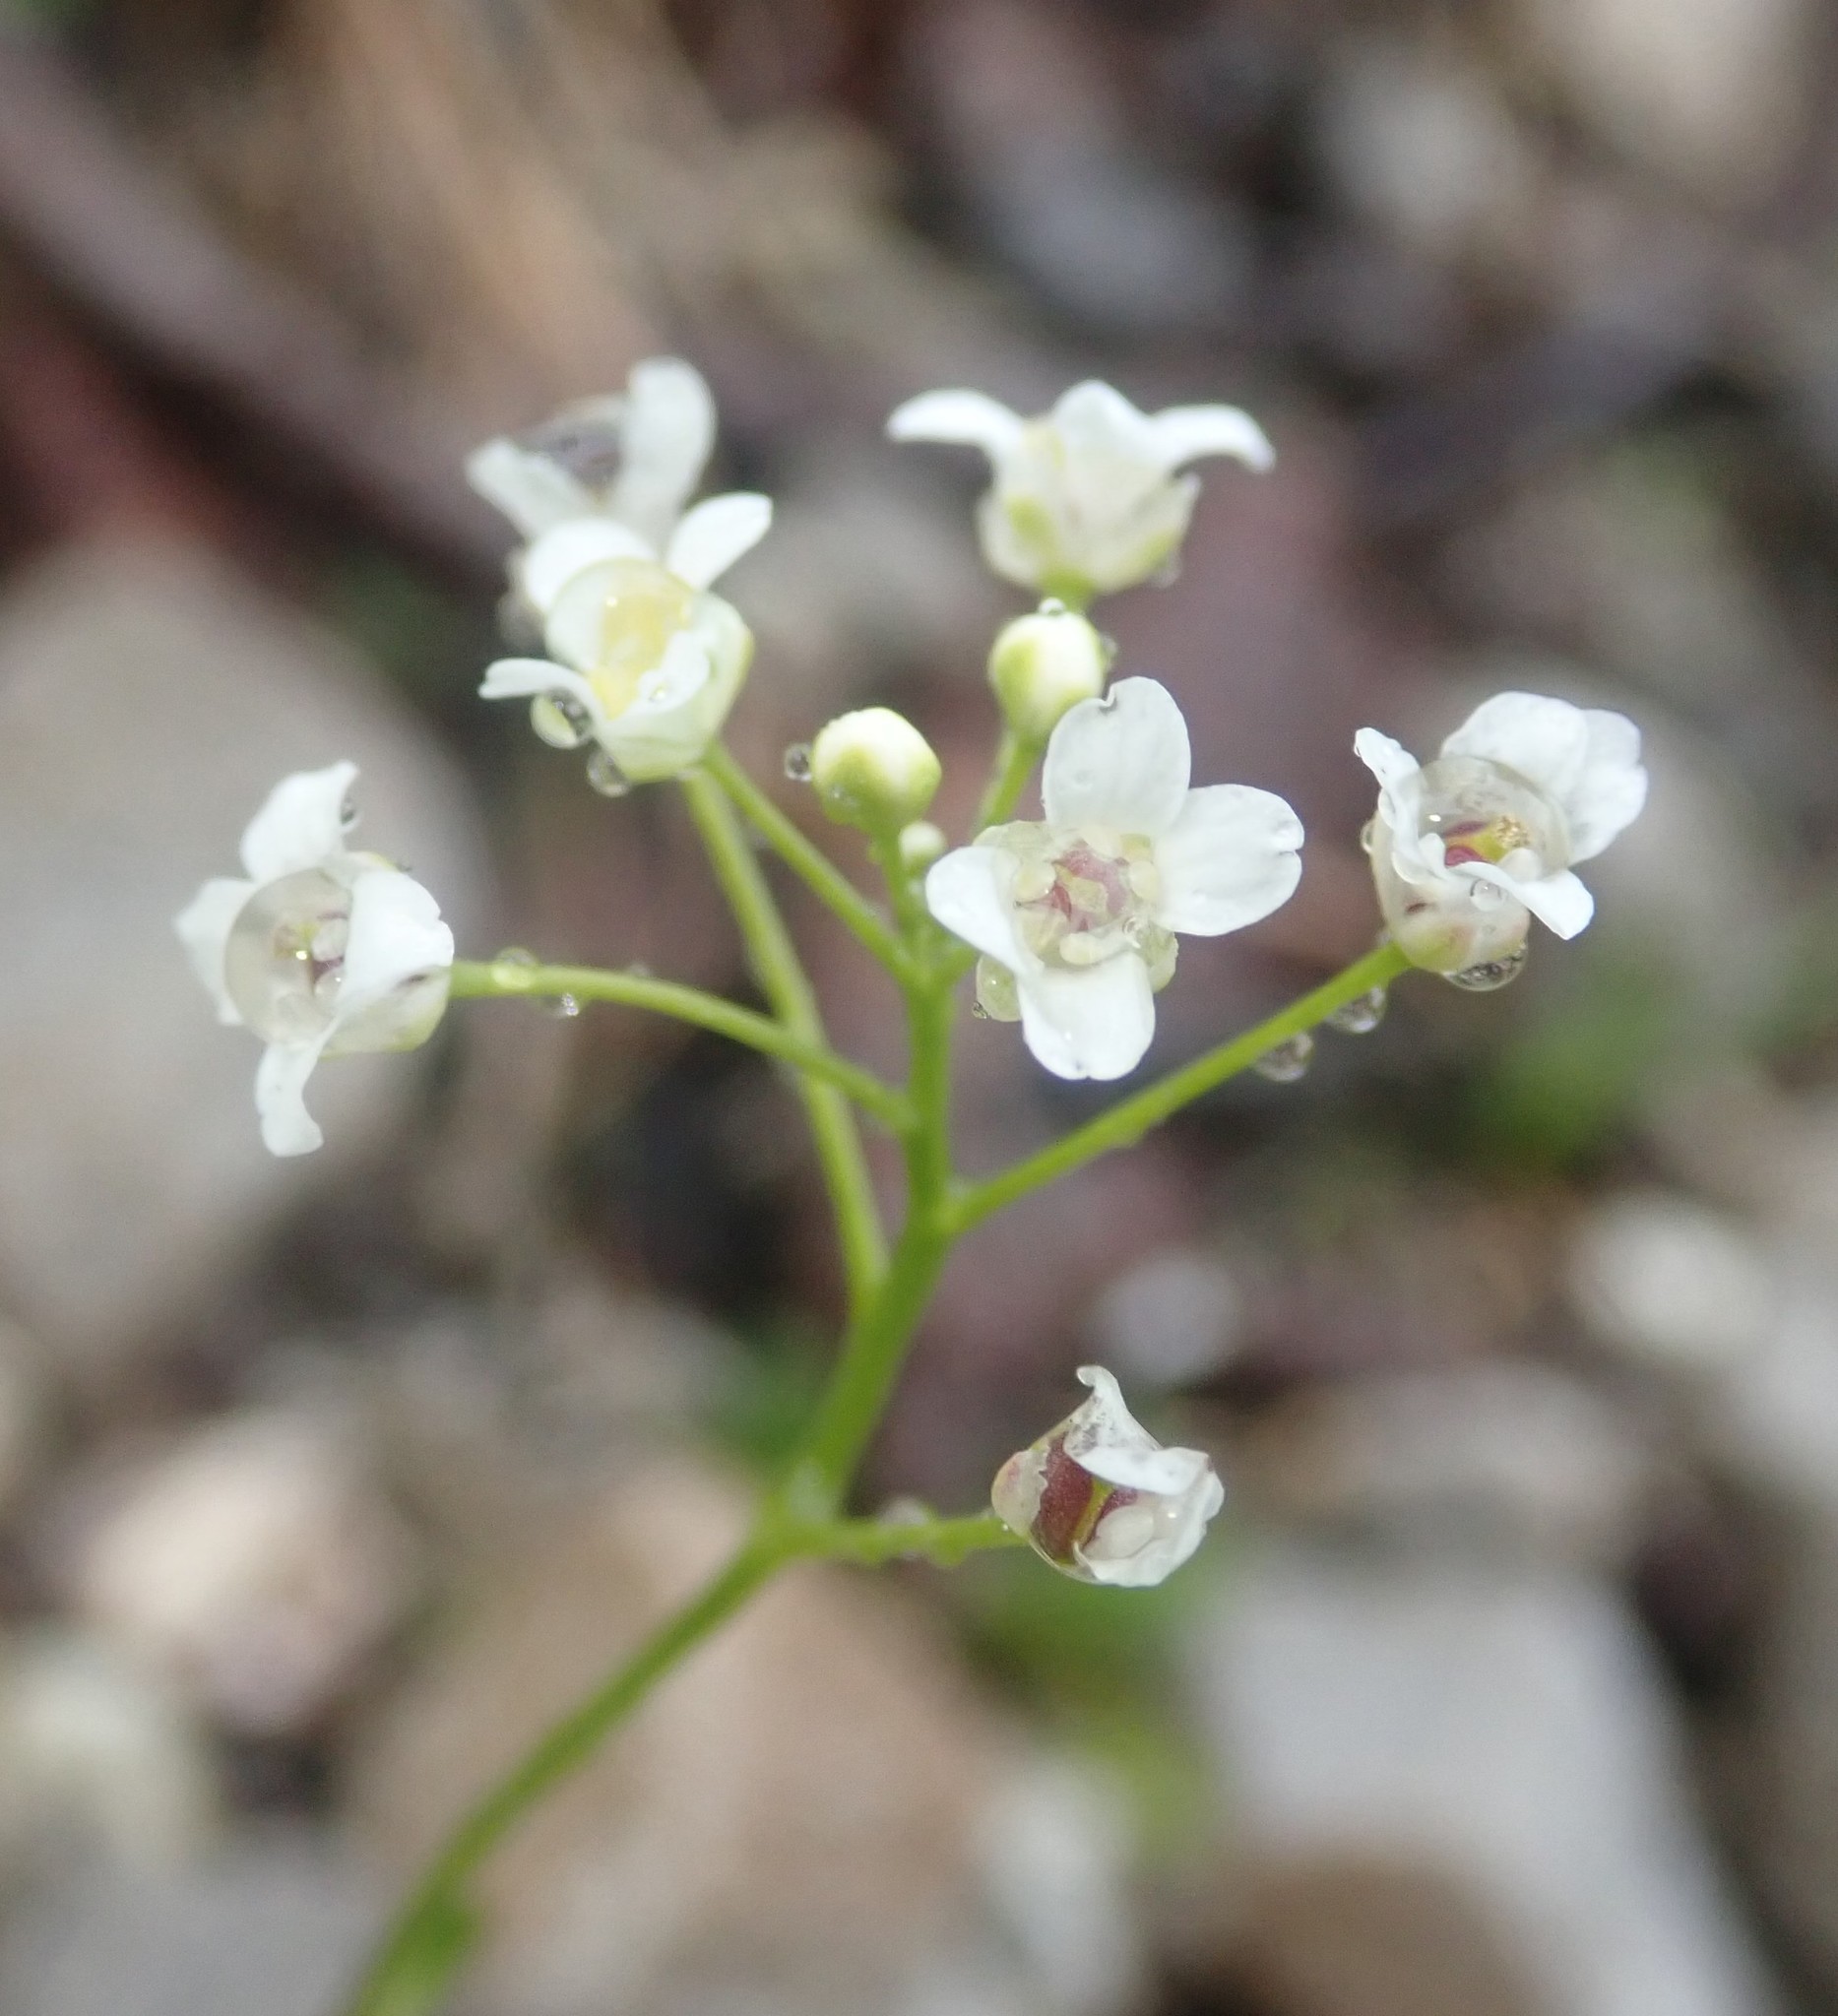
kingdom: Plantae
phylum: Tracheophyta
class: Magnoliopsida
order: Brassicales
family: Brassicaceae
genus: Kernera
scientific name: Kernera saxatilis
